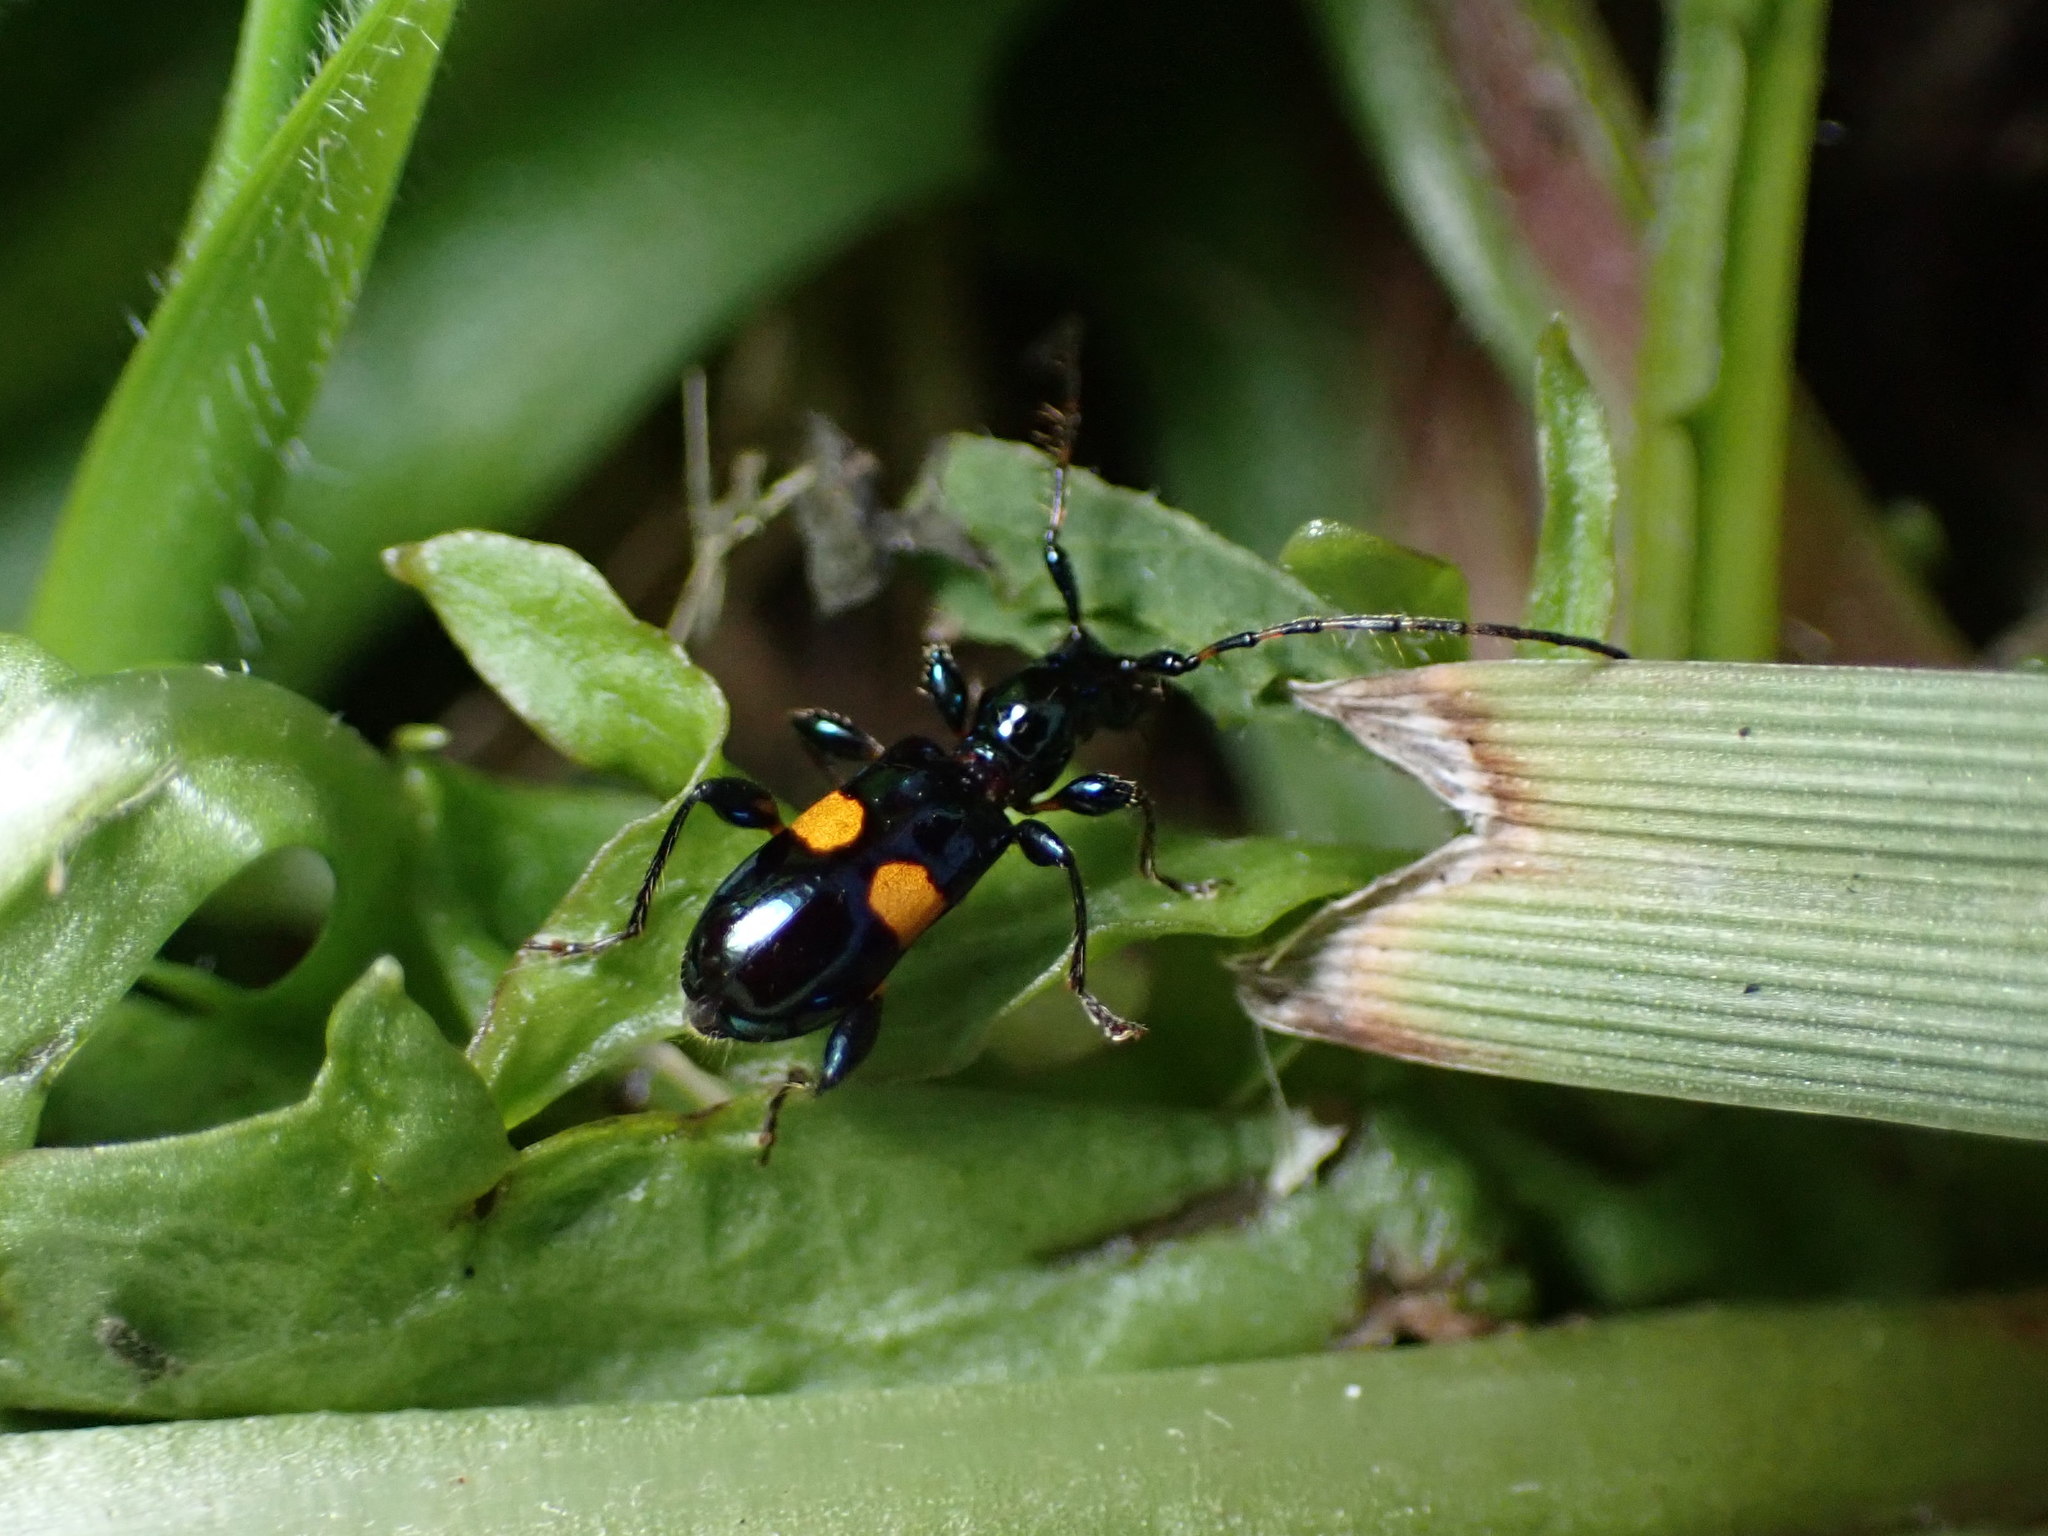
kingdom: Animalia
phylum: Arthropoda
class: Insecta
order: Coleoptera
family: Cerambycidae
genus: Zorion
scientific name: Zorion guttigerum
